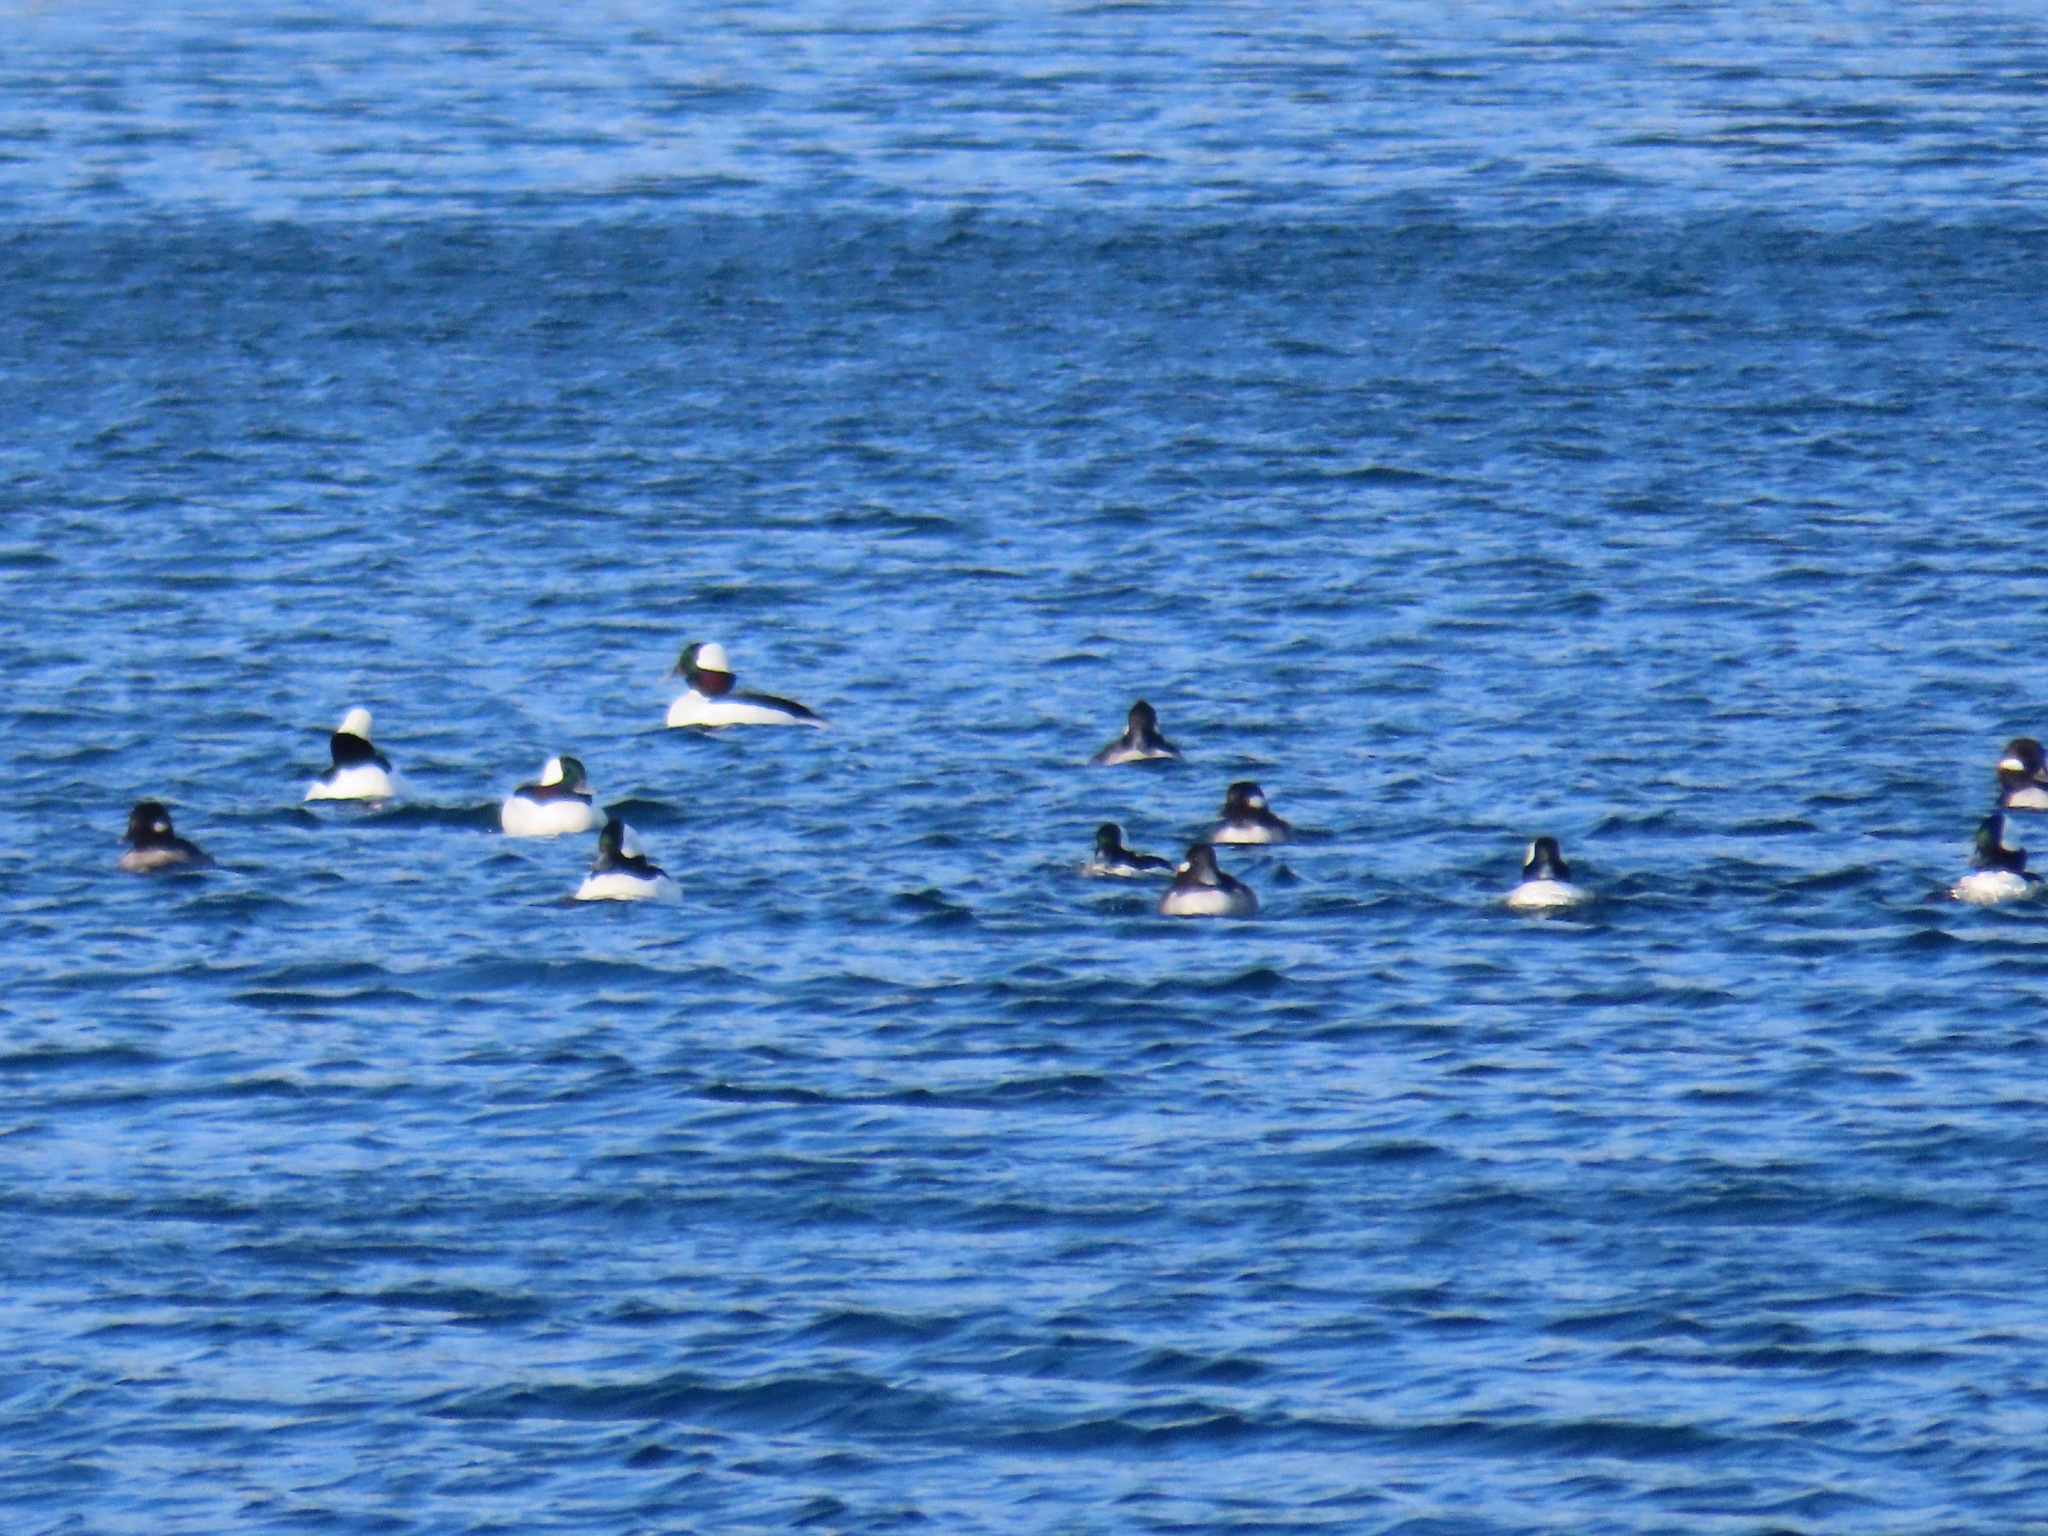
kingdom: Animalia
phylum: Chordata
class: Aves
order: Anseriformes
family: Anatidae
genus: Bucephala
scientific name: Bucephala albeola
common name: Bufflehead
